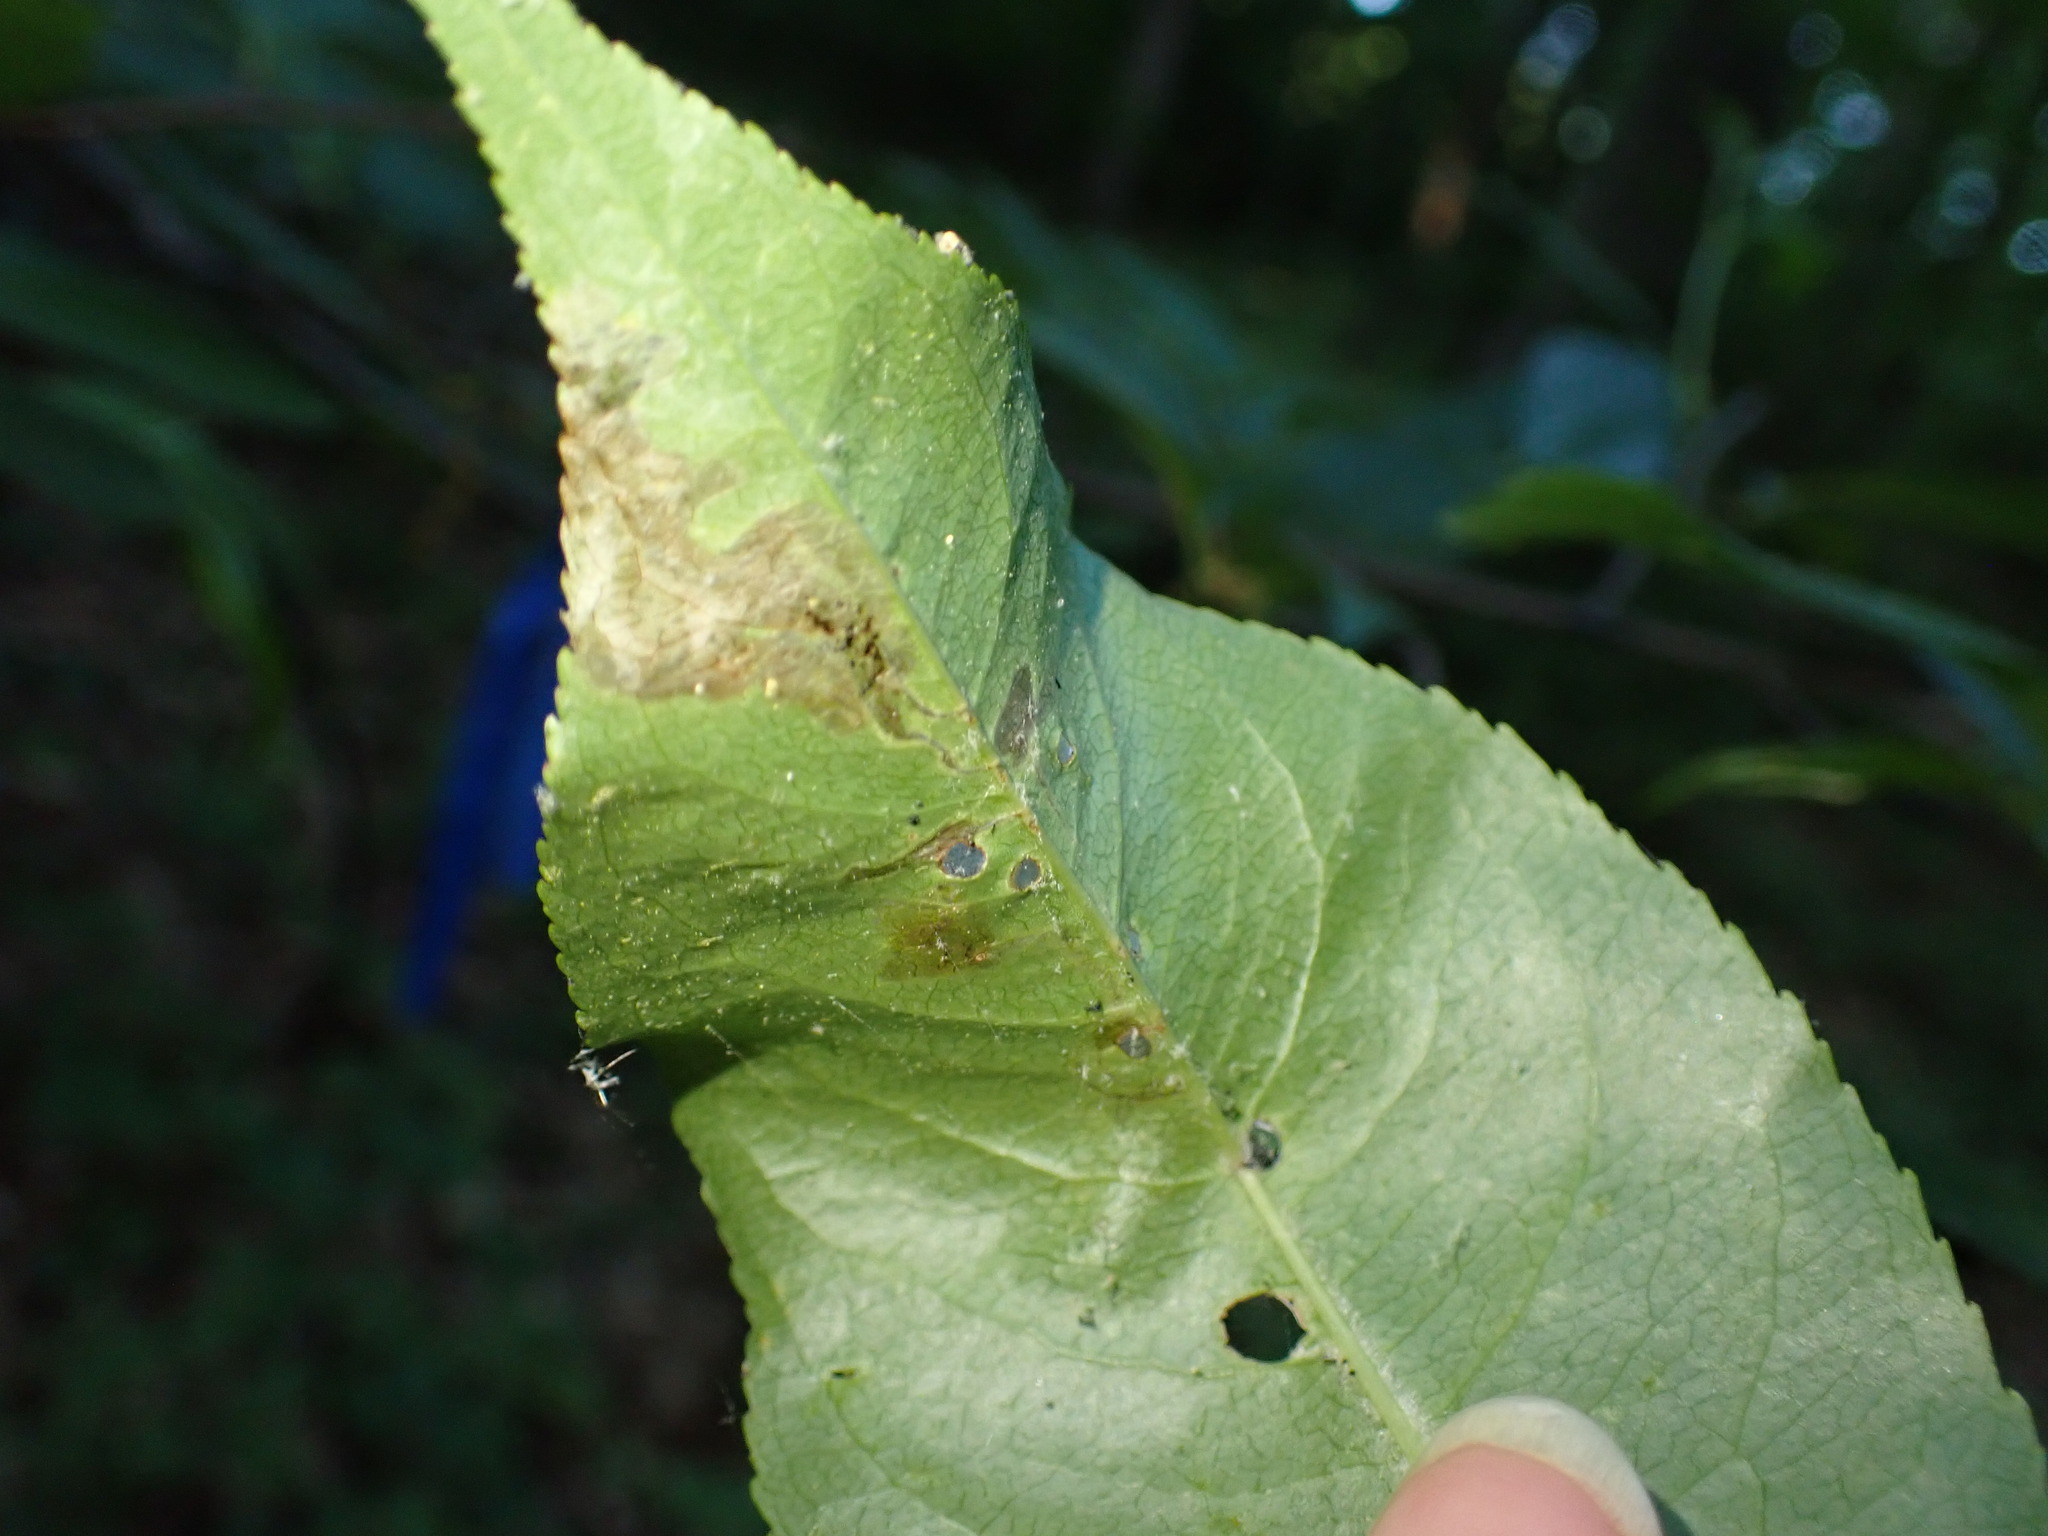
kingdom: Animalia
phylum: Arthropoda
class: Insecta
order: Coleoptera
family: Curculionidae
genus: Orchestes
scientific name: Orchestes pallicornis
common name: Apple-flea weevil
